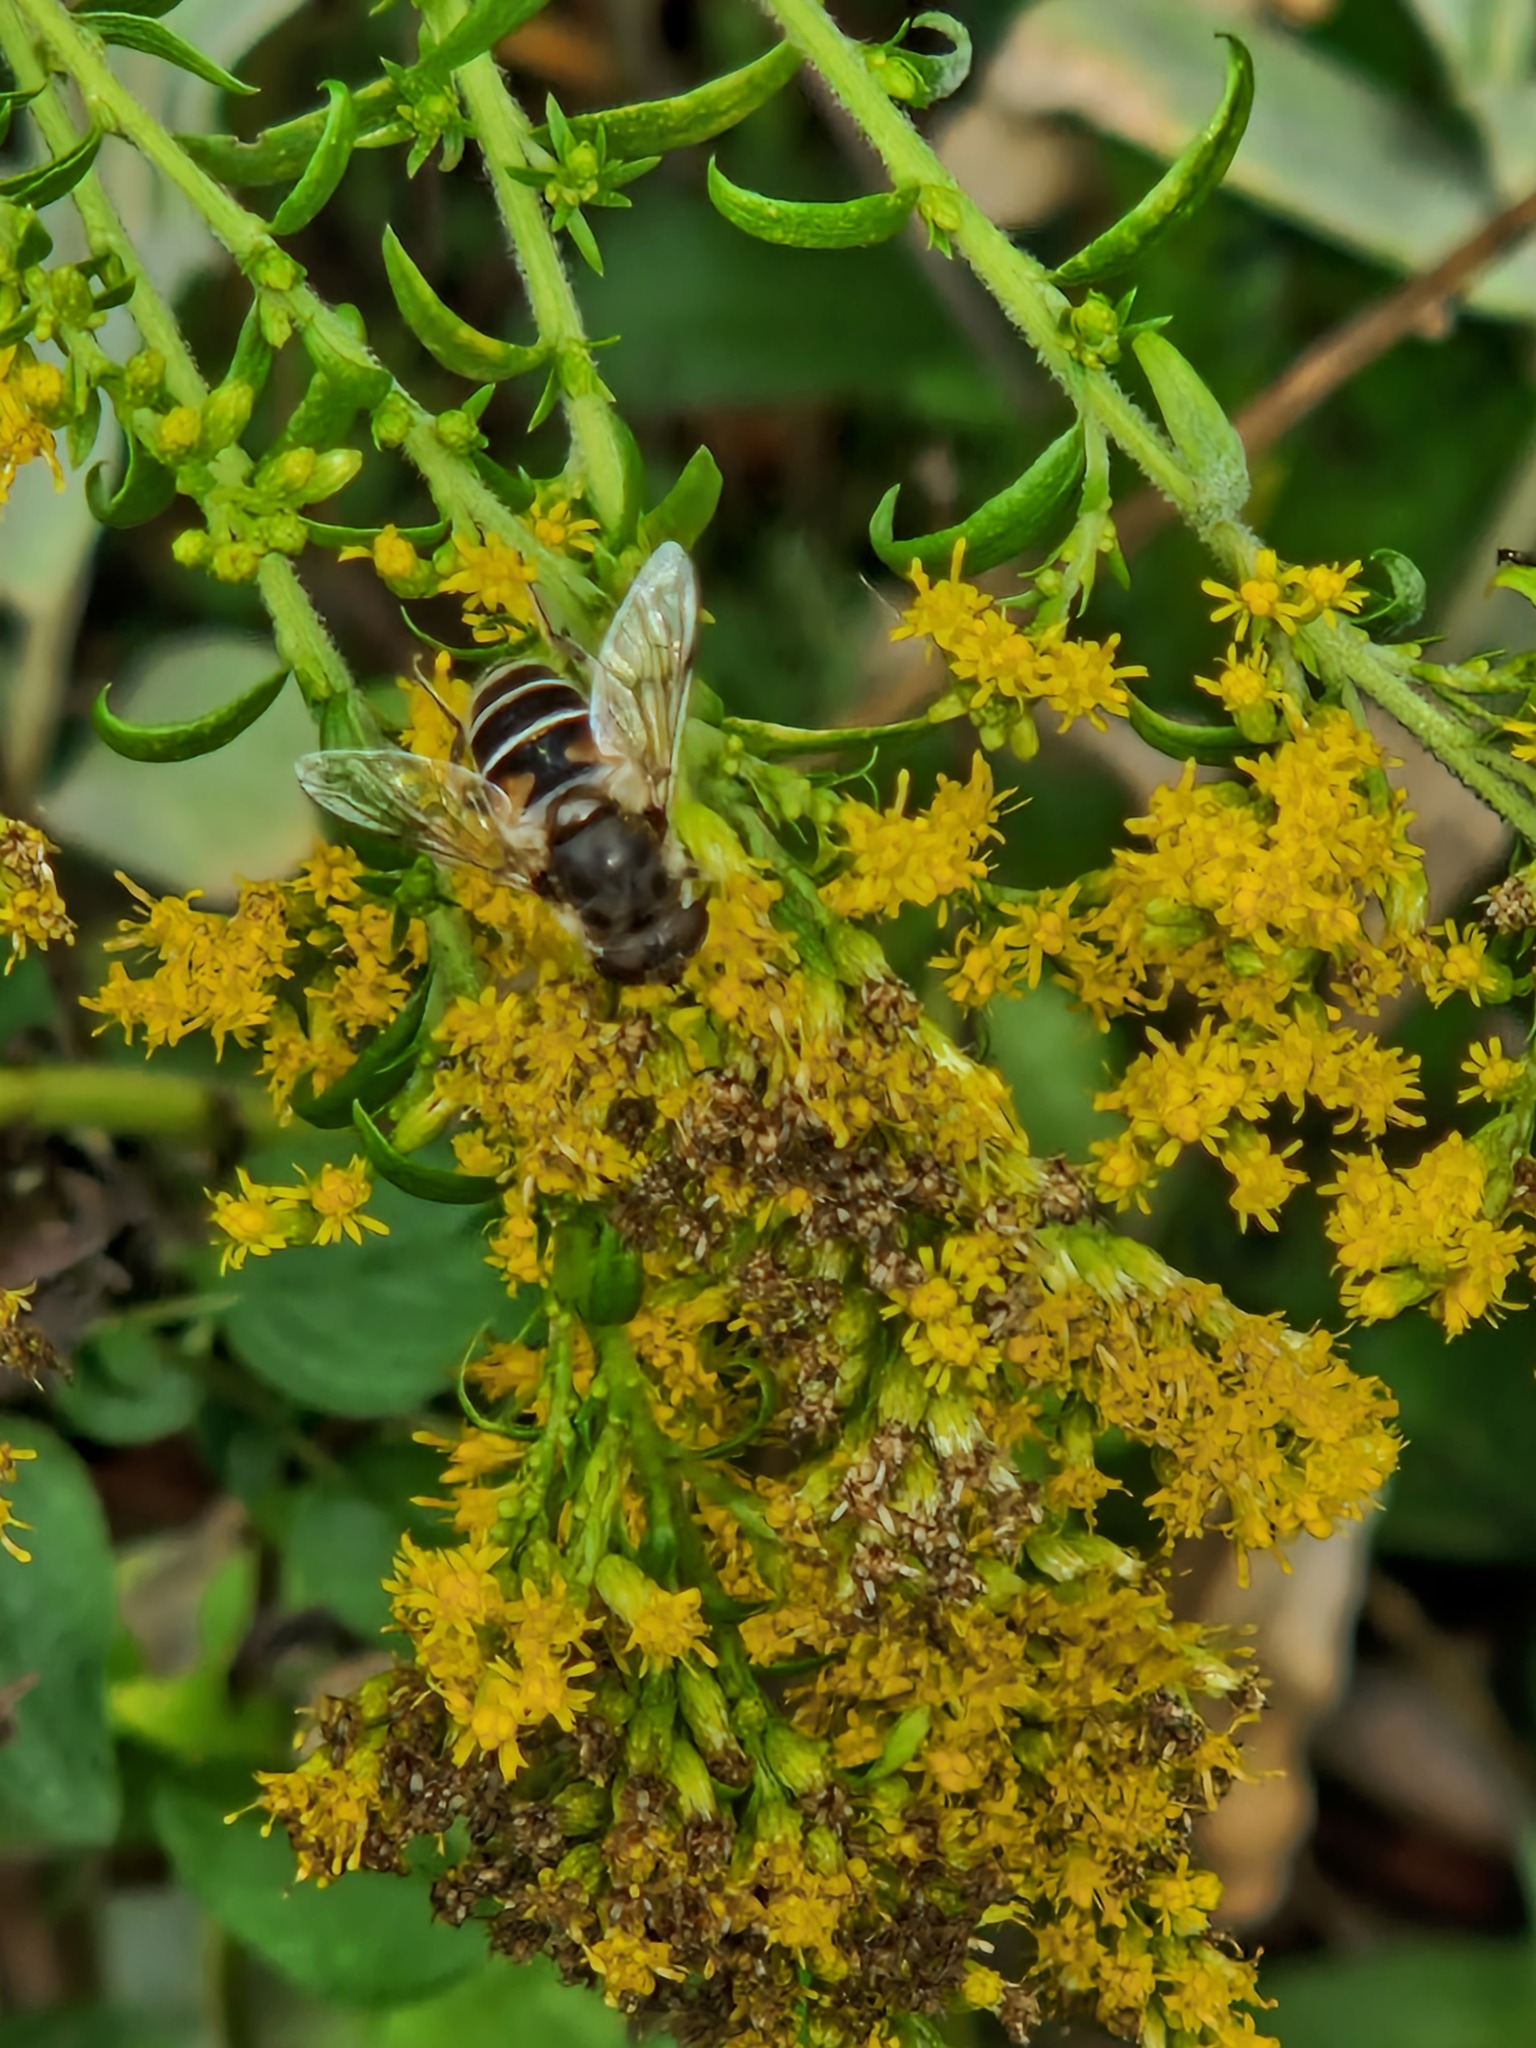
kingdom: Animalia
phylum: Arthropoda
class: Insecta
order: Diptera
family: Syrphidae
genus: Eristalis
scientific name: Eristalis arbustorum
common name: Hover fly
